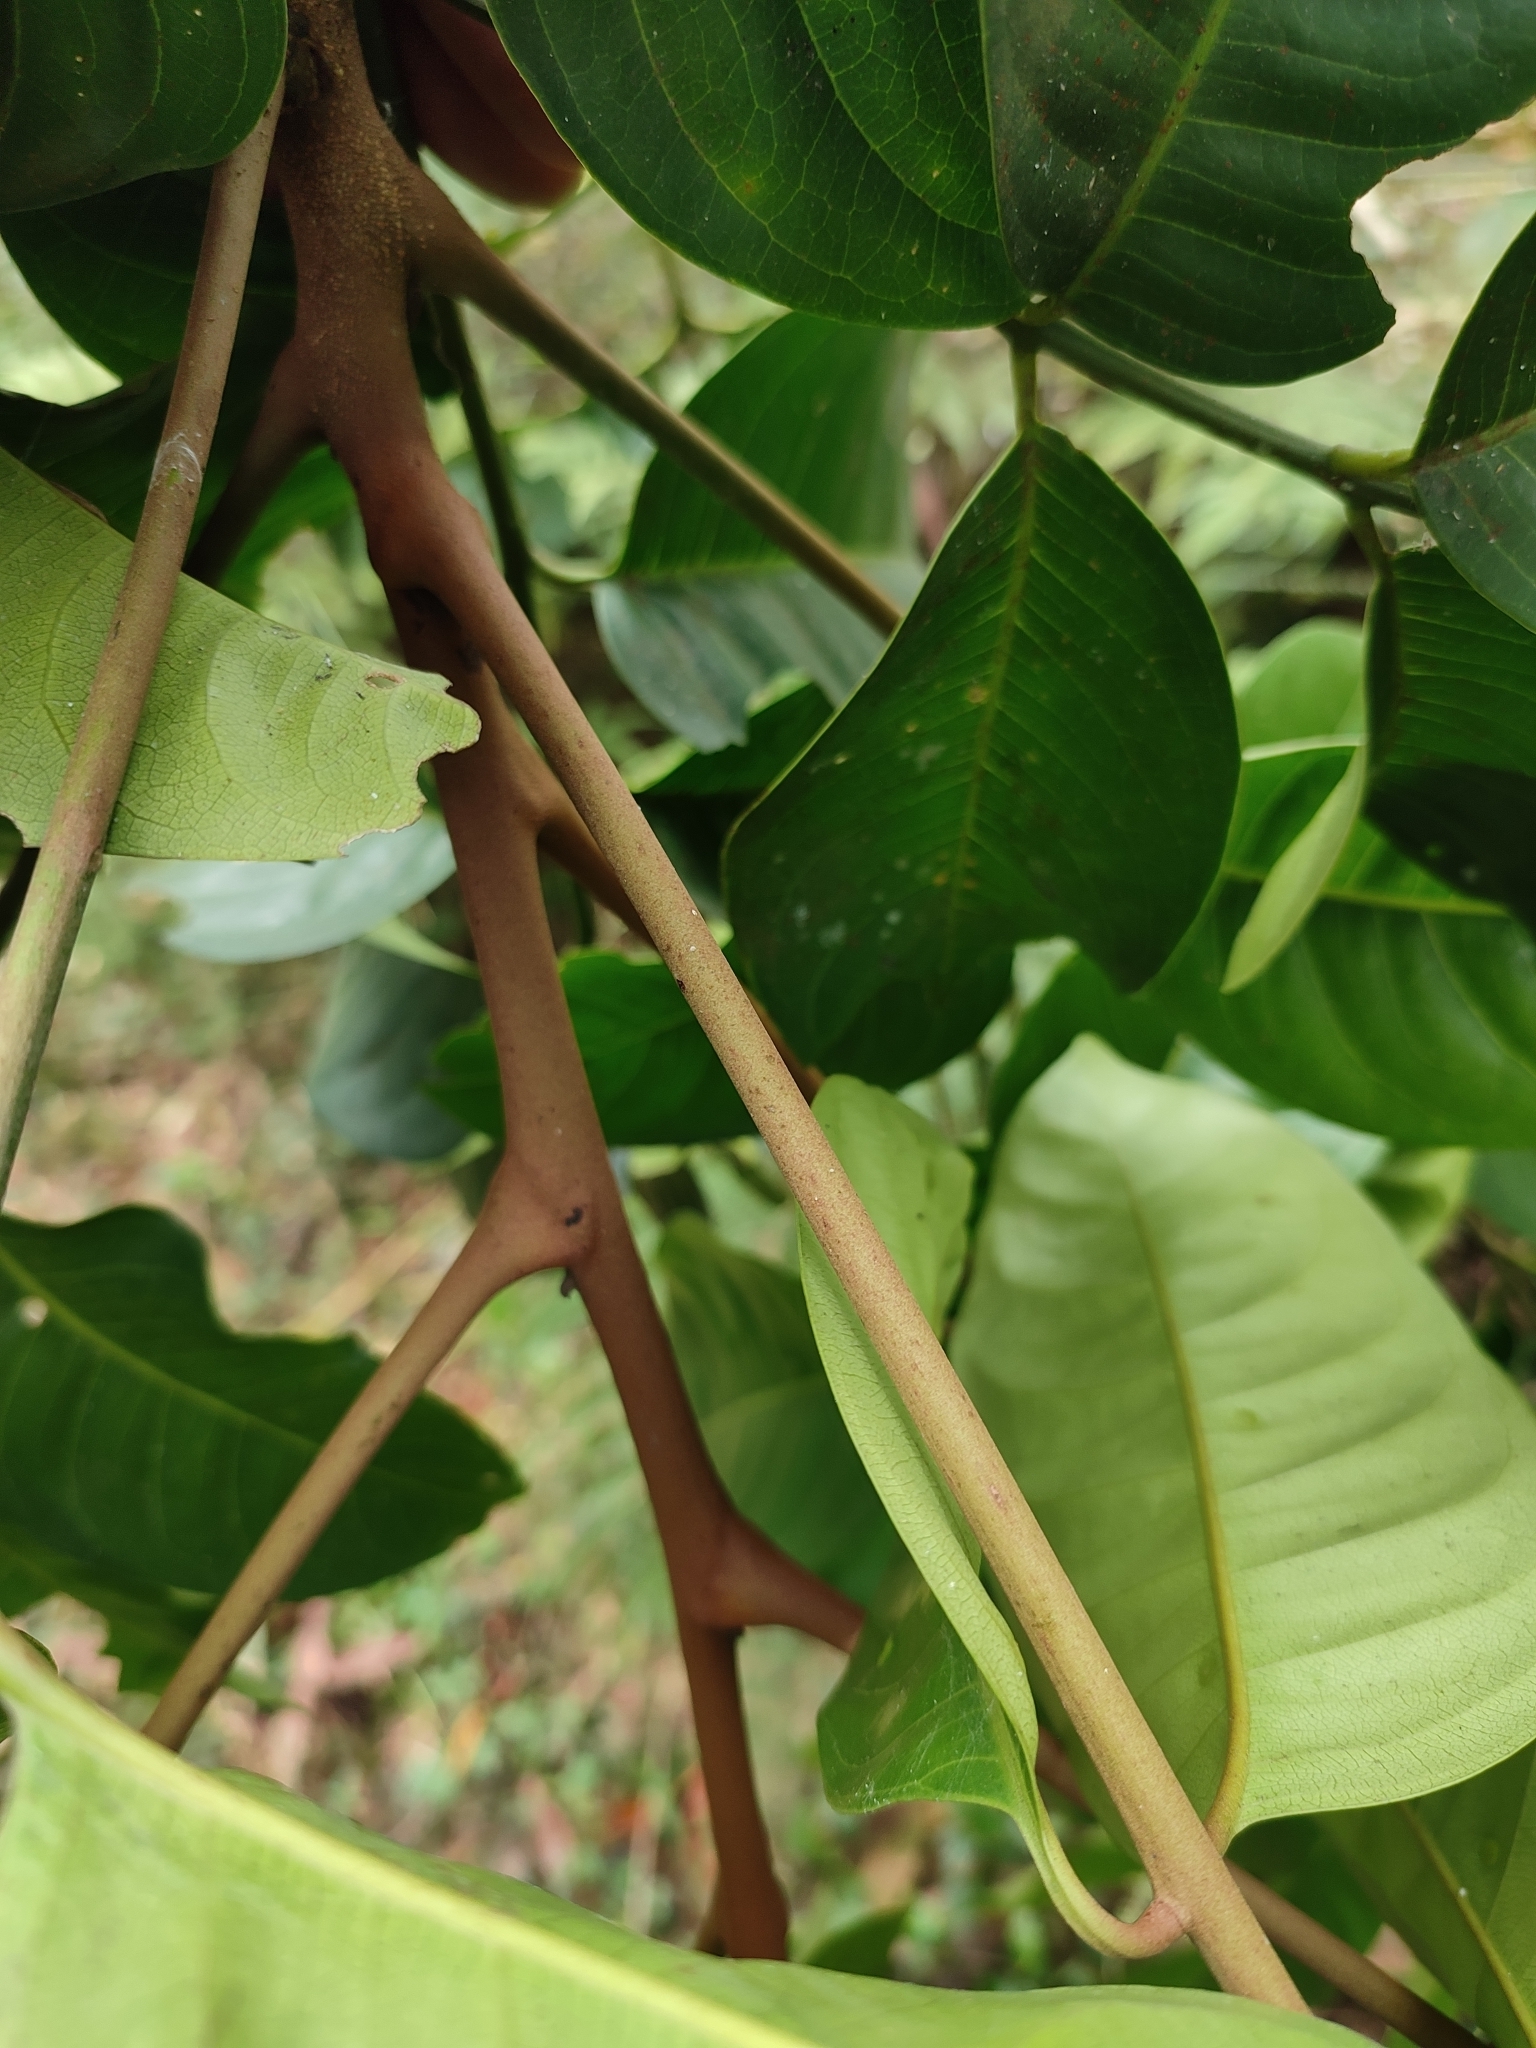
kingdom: Plantae
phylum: Tracheophyta
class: Magnoliopsida
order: Sapindales
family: Meliaceae
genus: Dysoxylum
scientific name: Dysoxylum gotadhora
